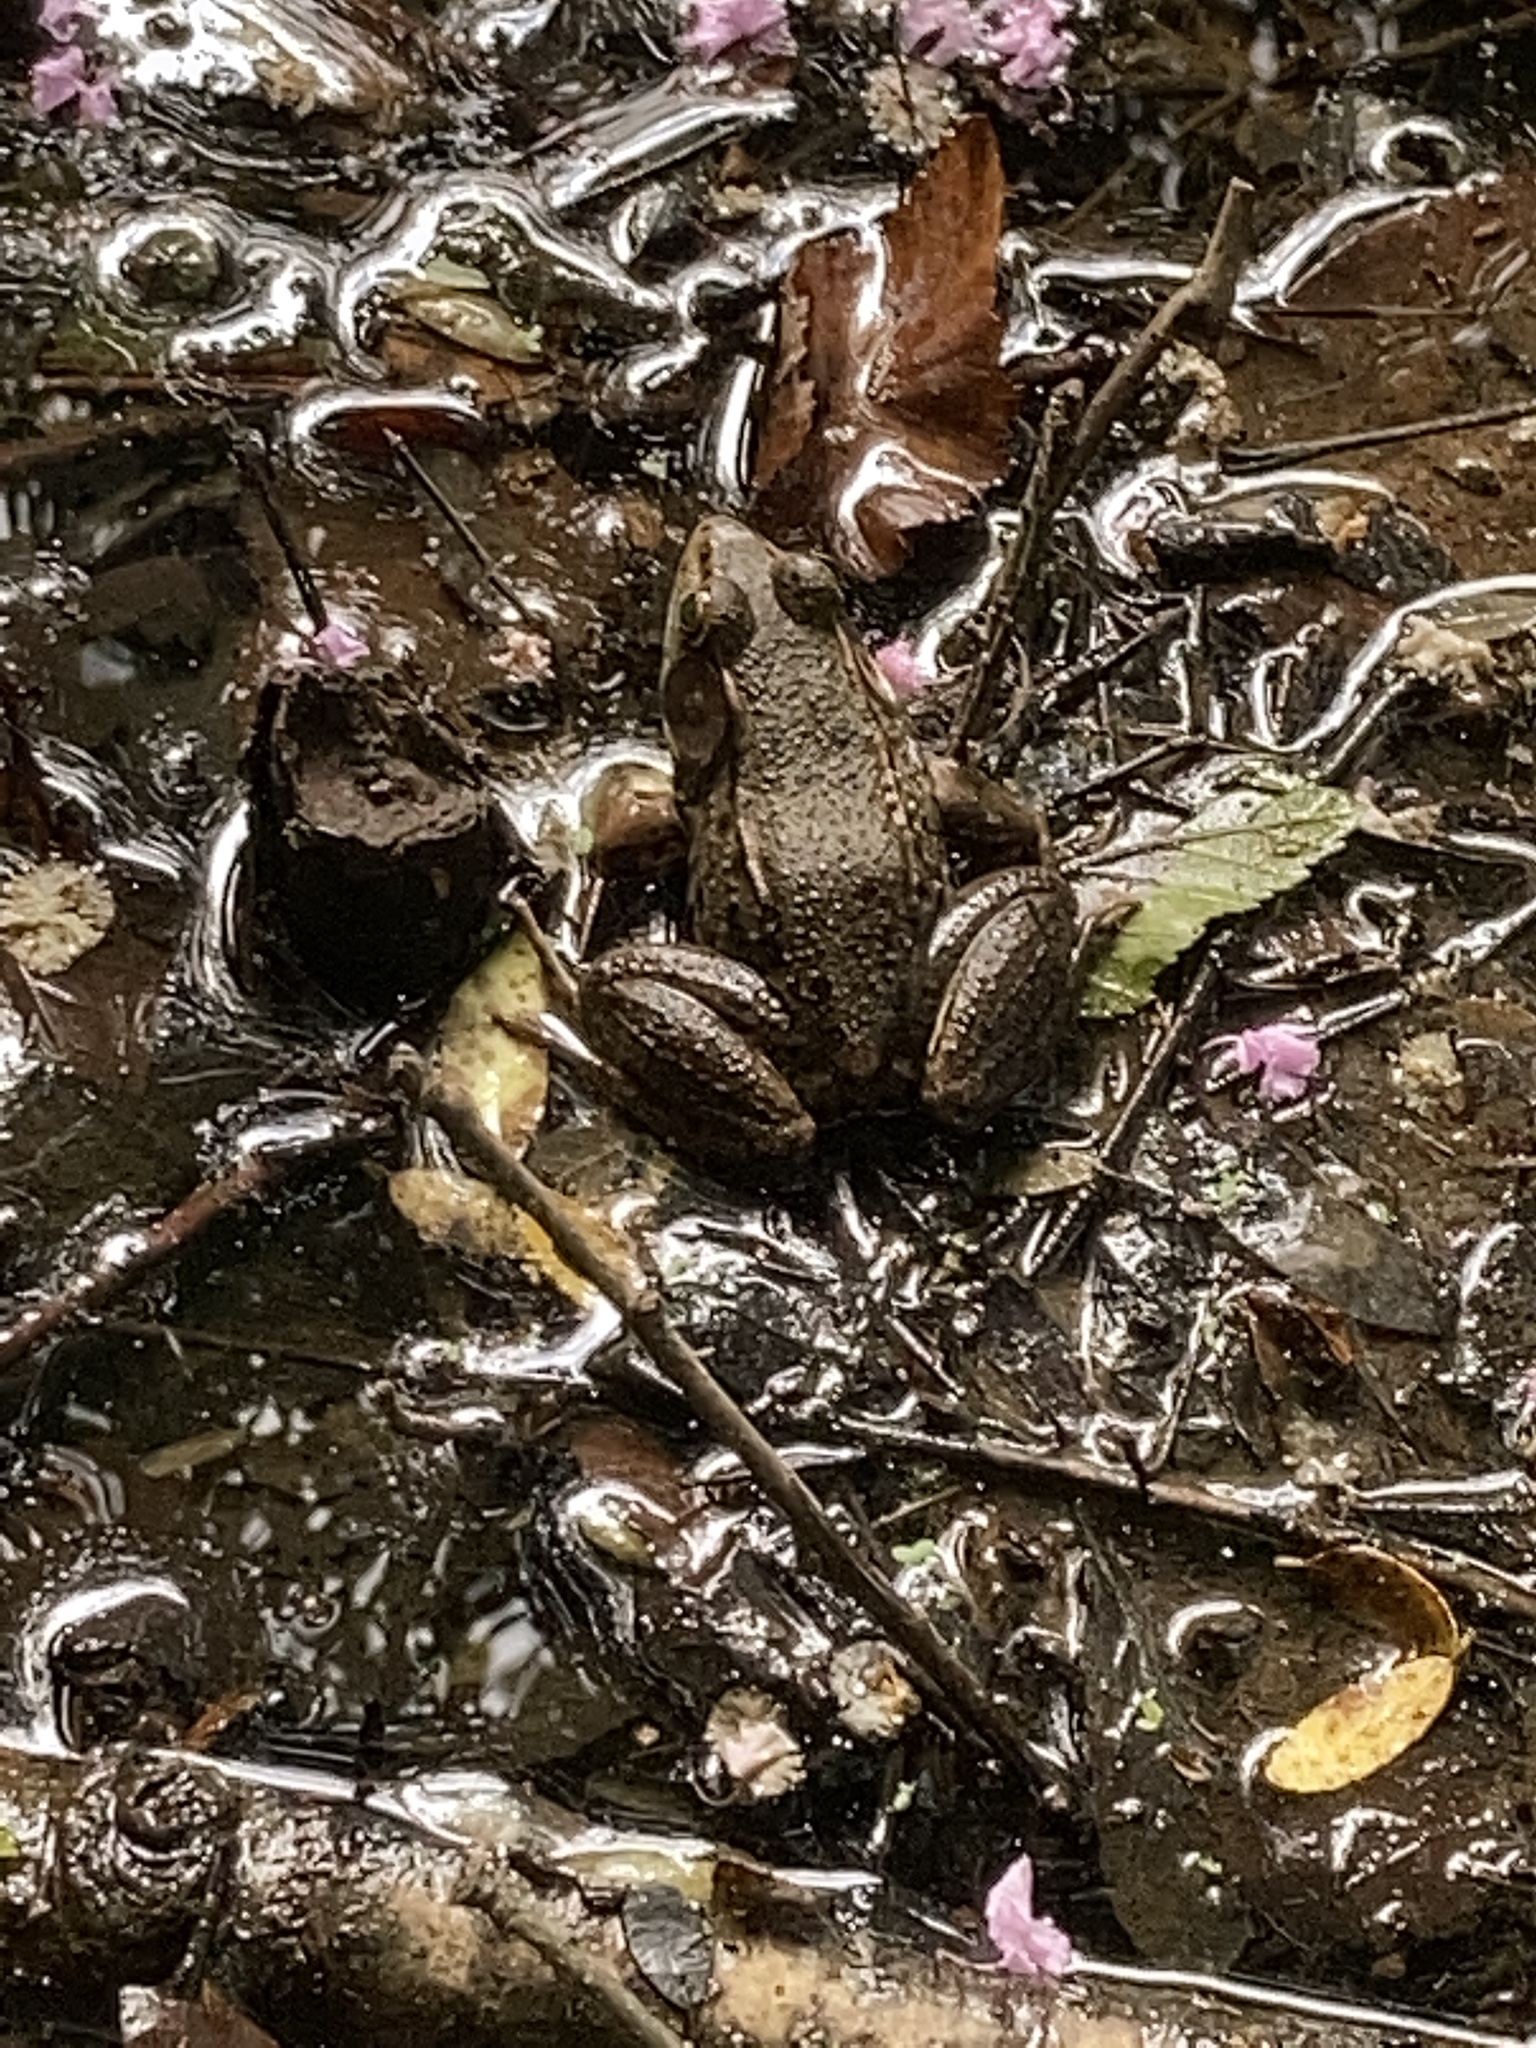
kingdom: Animalia
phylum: Chordata
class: Amphibia
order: Anura
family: Ranidae
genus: Lithobates
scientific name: Lithobates clamitans
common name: Green frog
